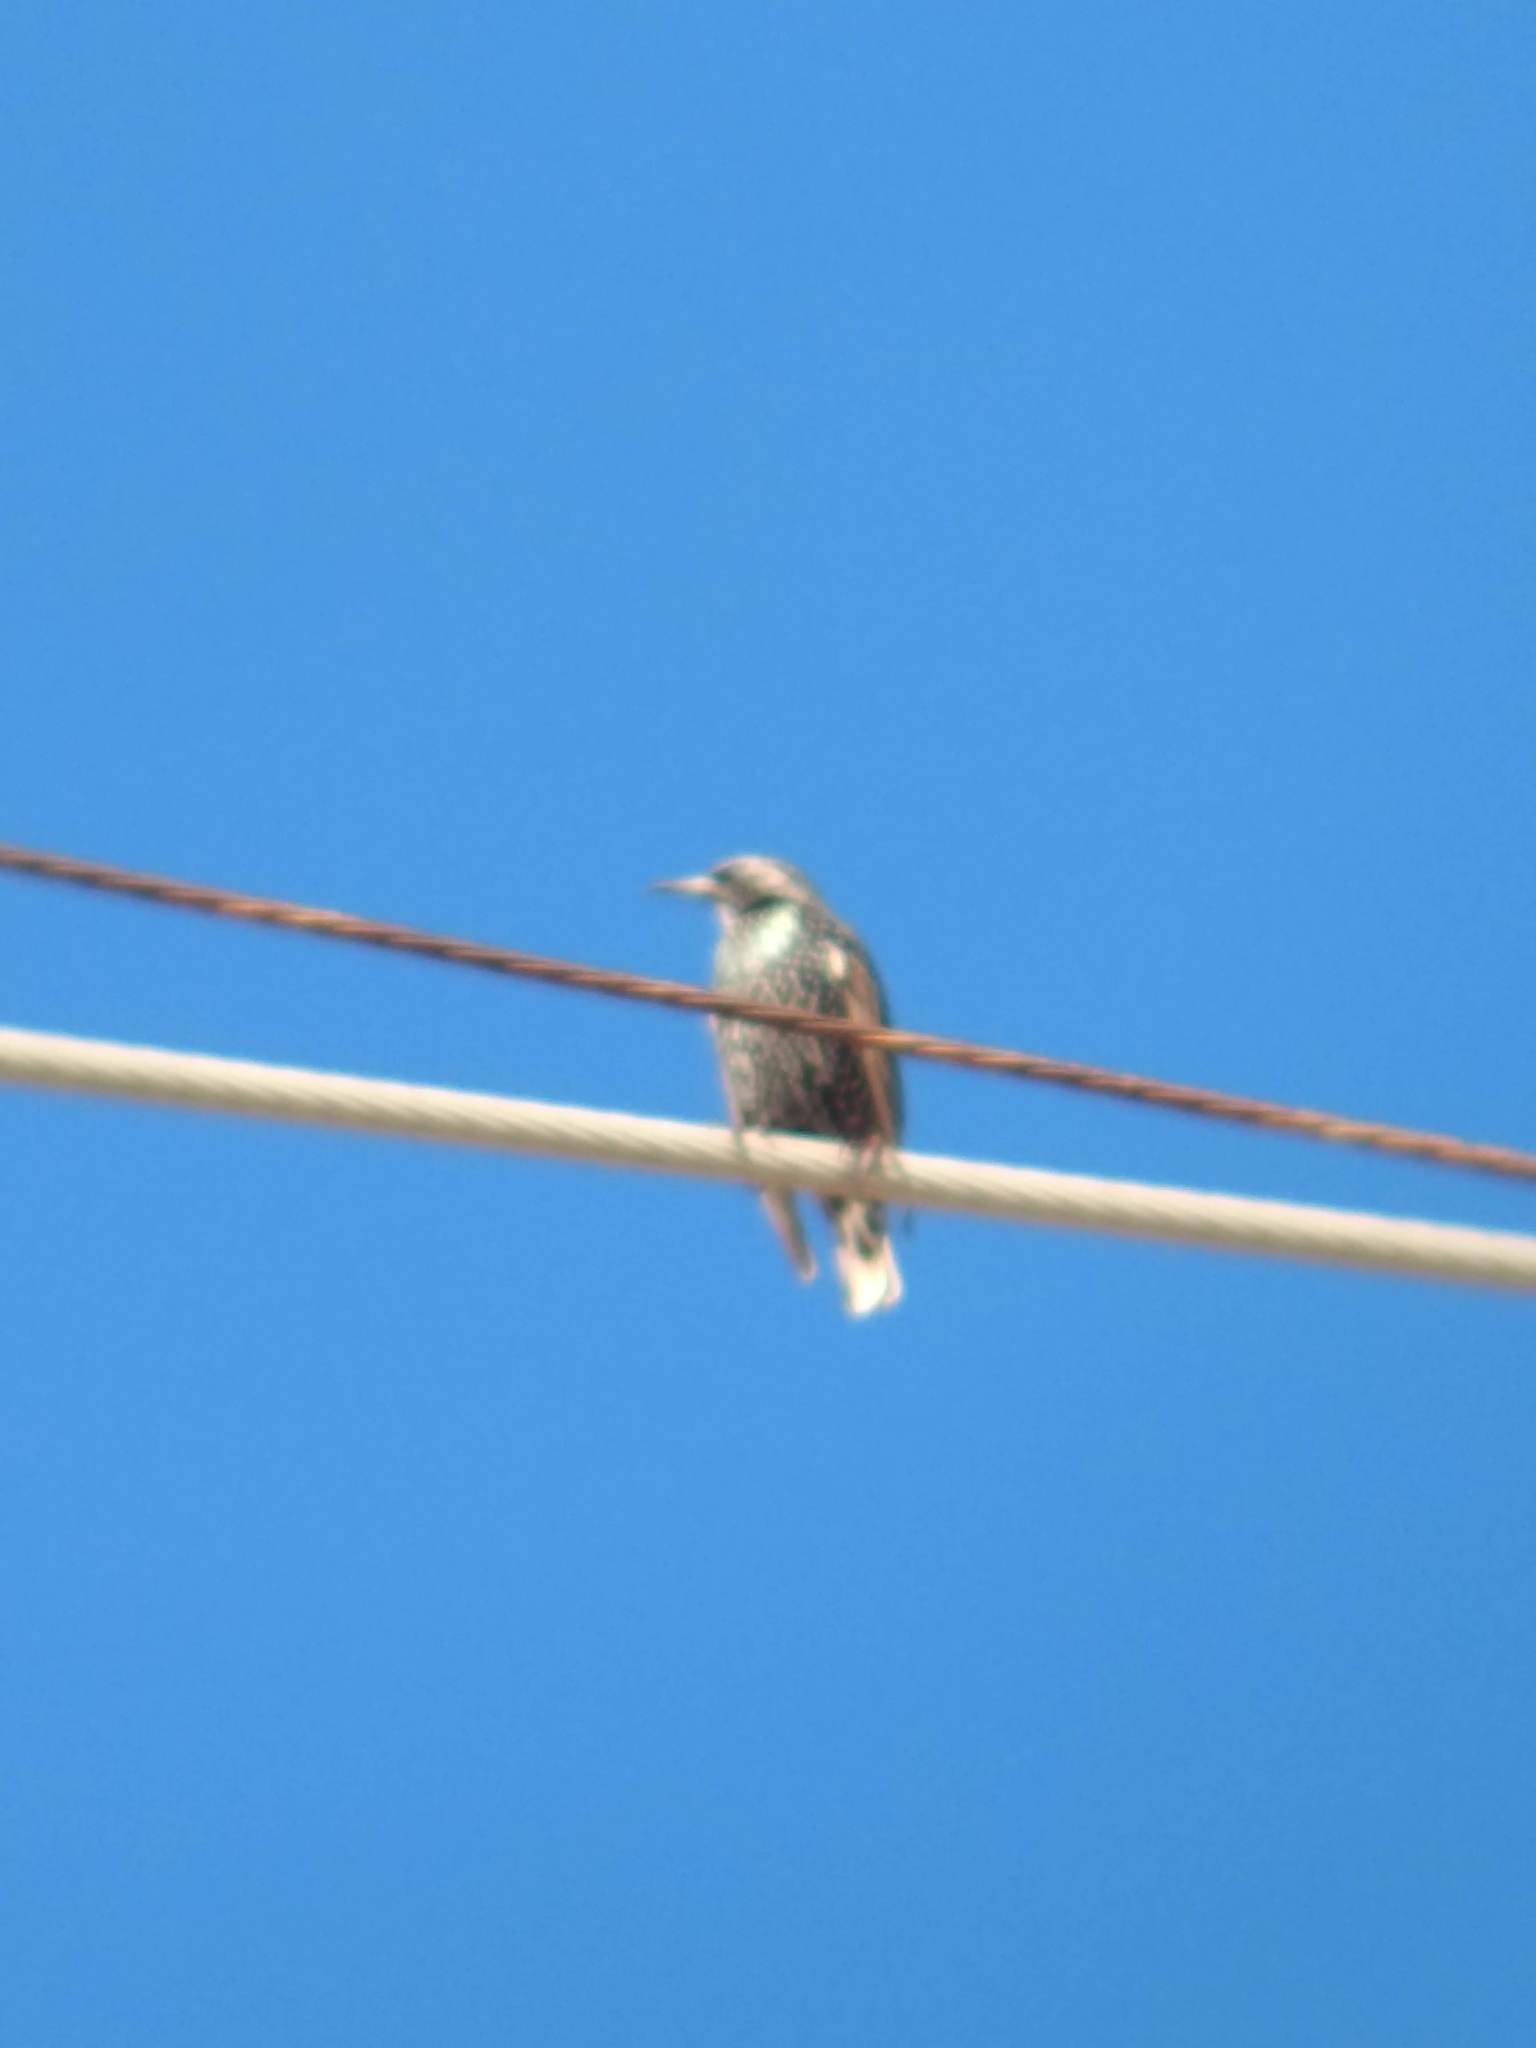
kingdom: Animalia
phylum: Chordata
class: Aves
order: Passeriformes
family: Sturnidae
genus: Sturnus
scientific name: Sturnus vulgaris
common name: Common starling
